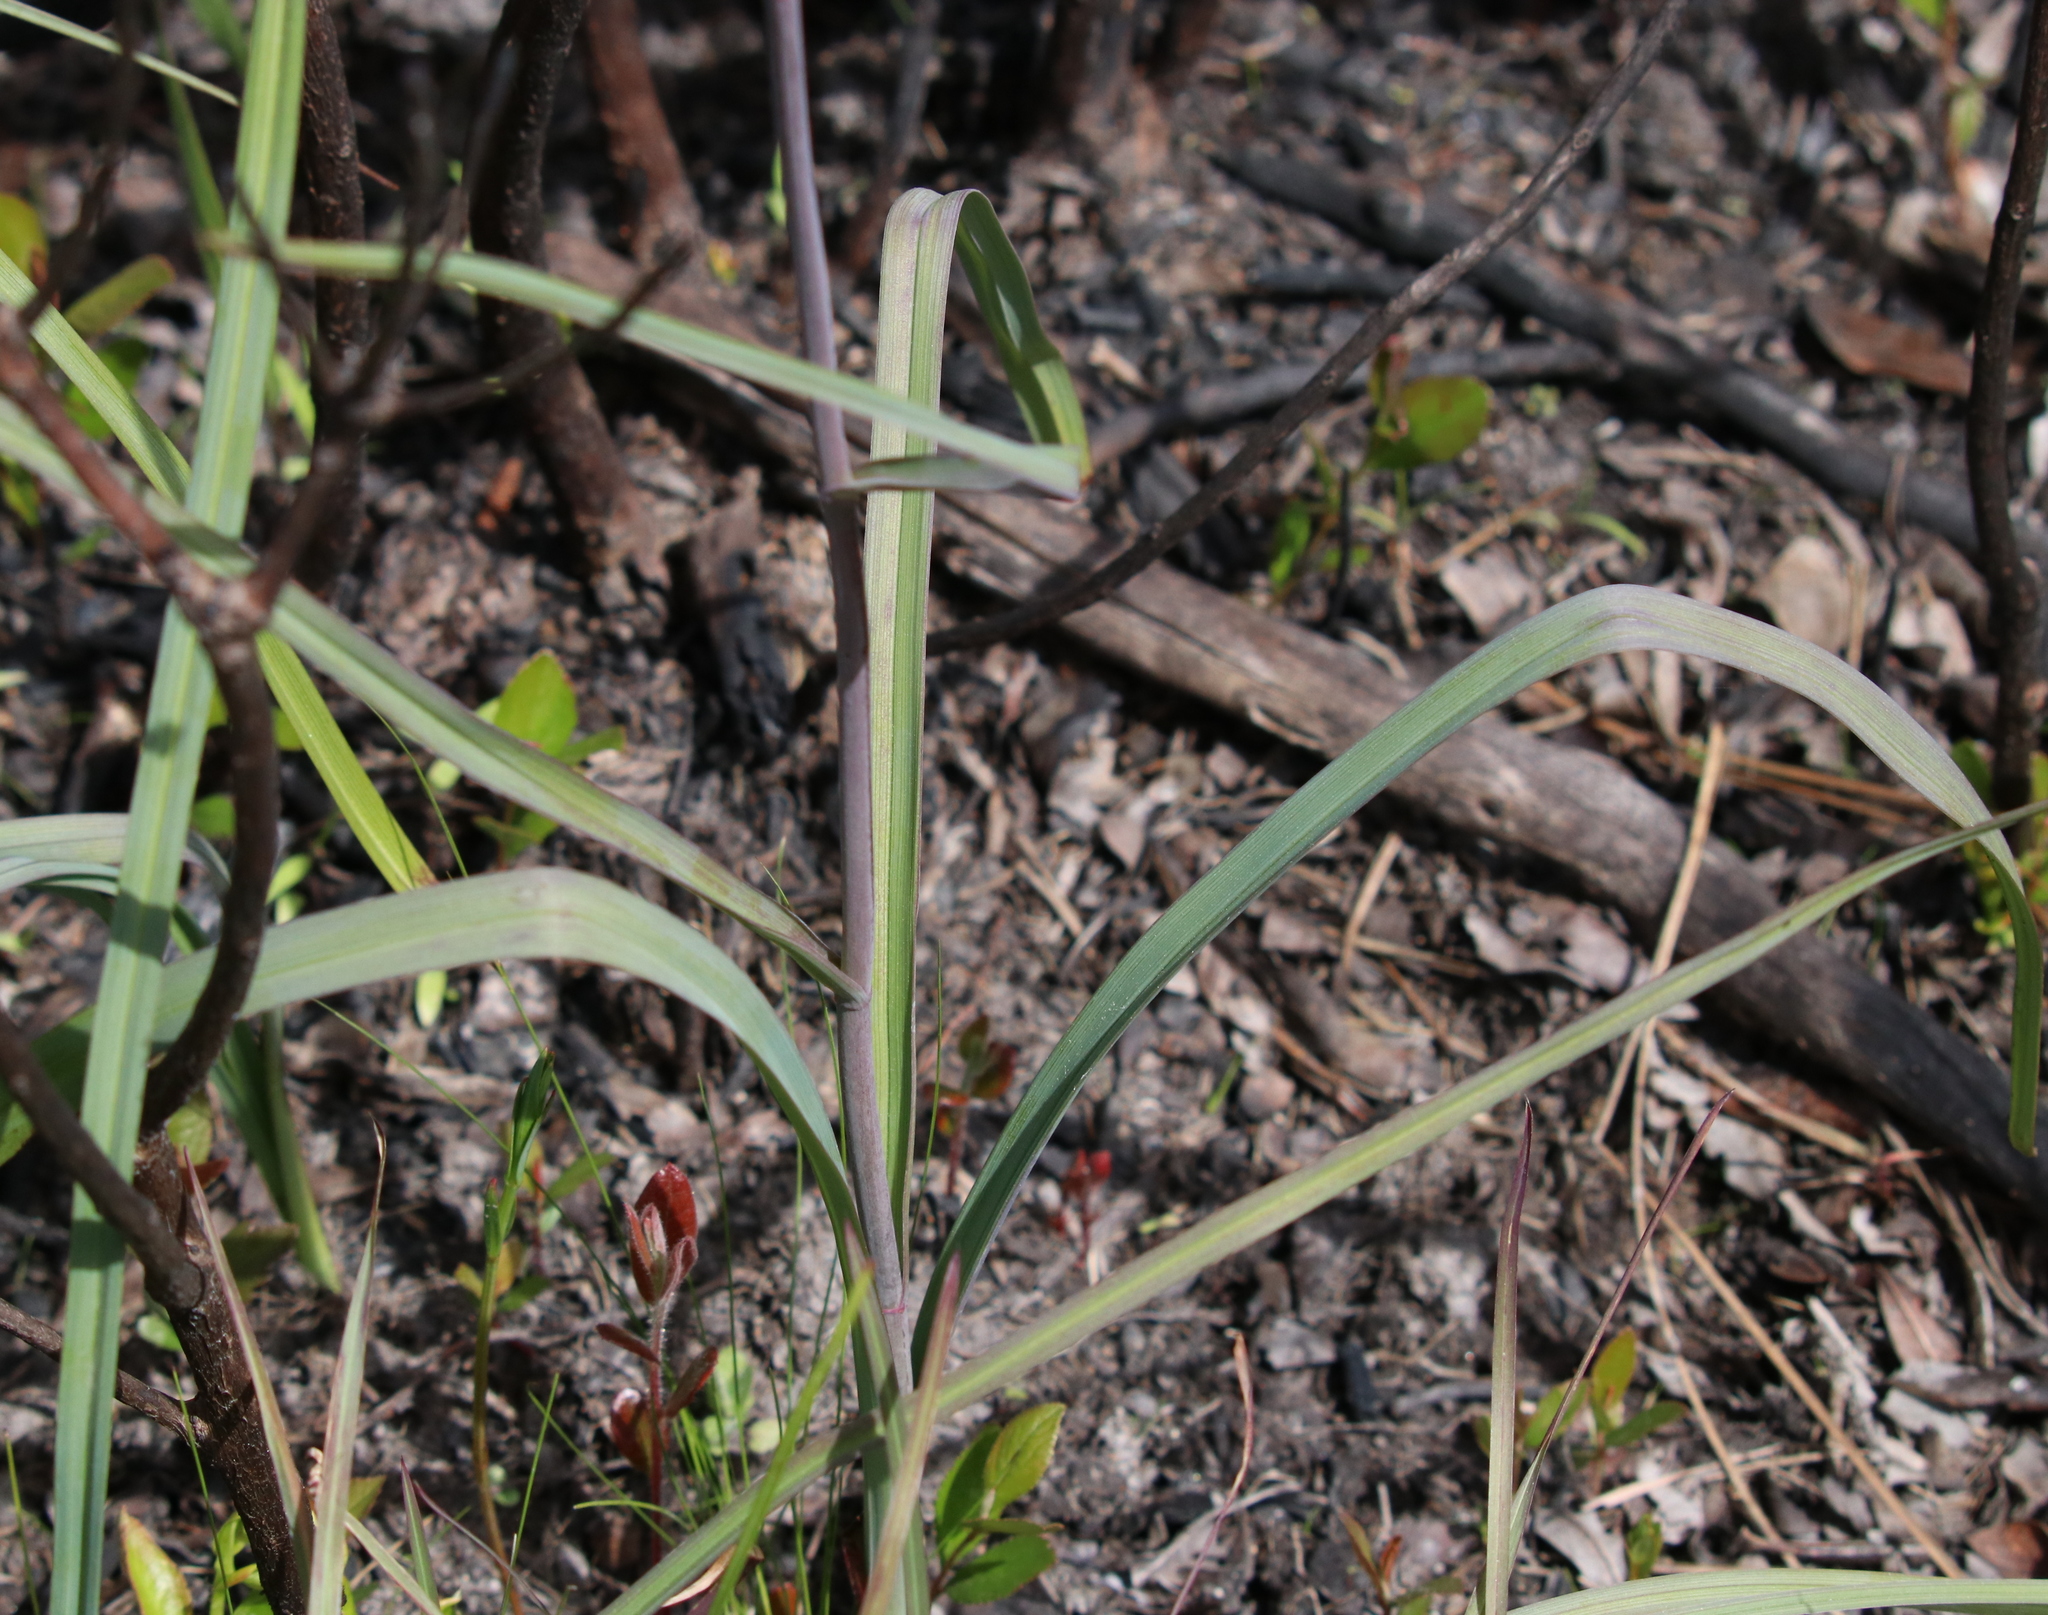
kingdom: Plantae
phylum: Tracheophyta
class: Liliopsida
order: Liliales
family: Melanthiaceae
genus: Amianthium
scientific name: Amianthium muscitoxicum
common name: Fly-poison
